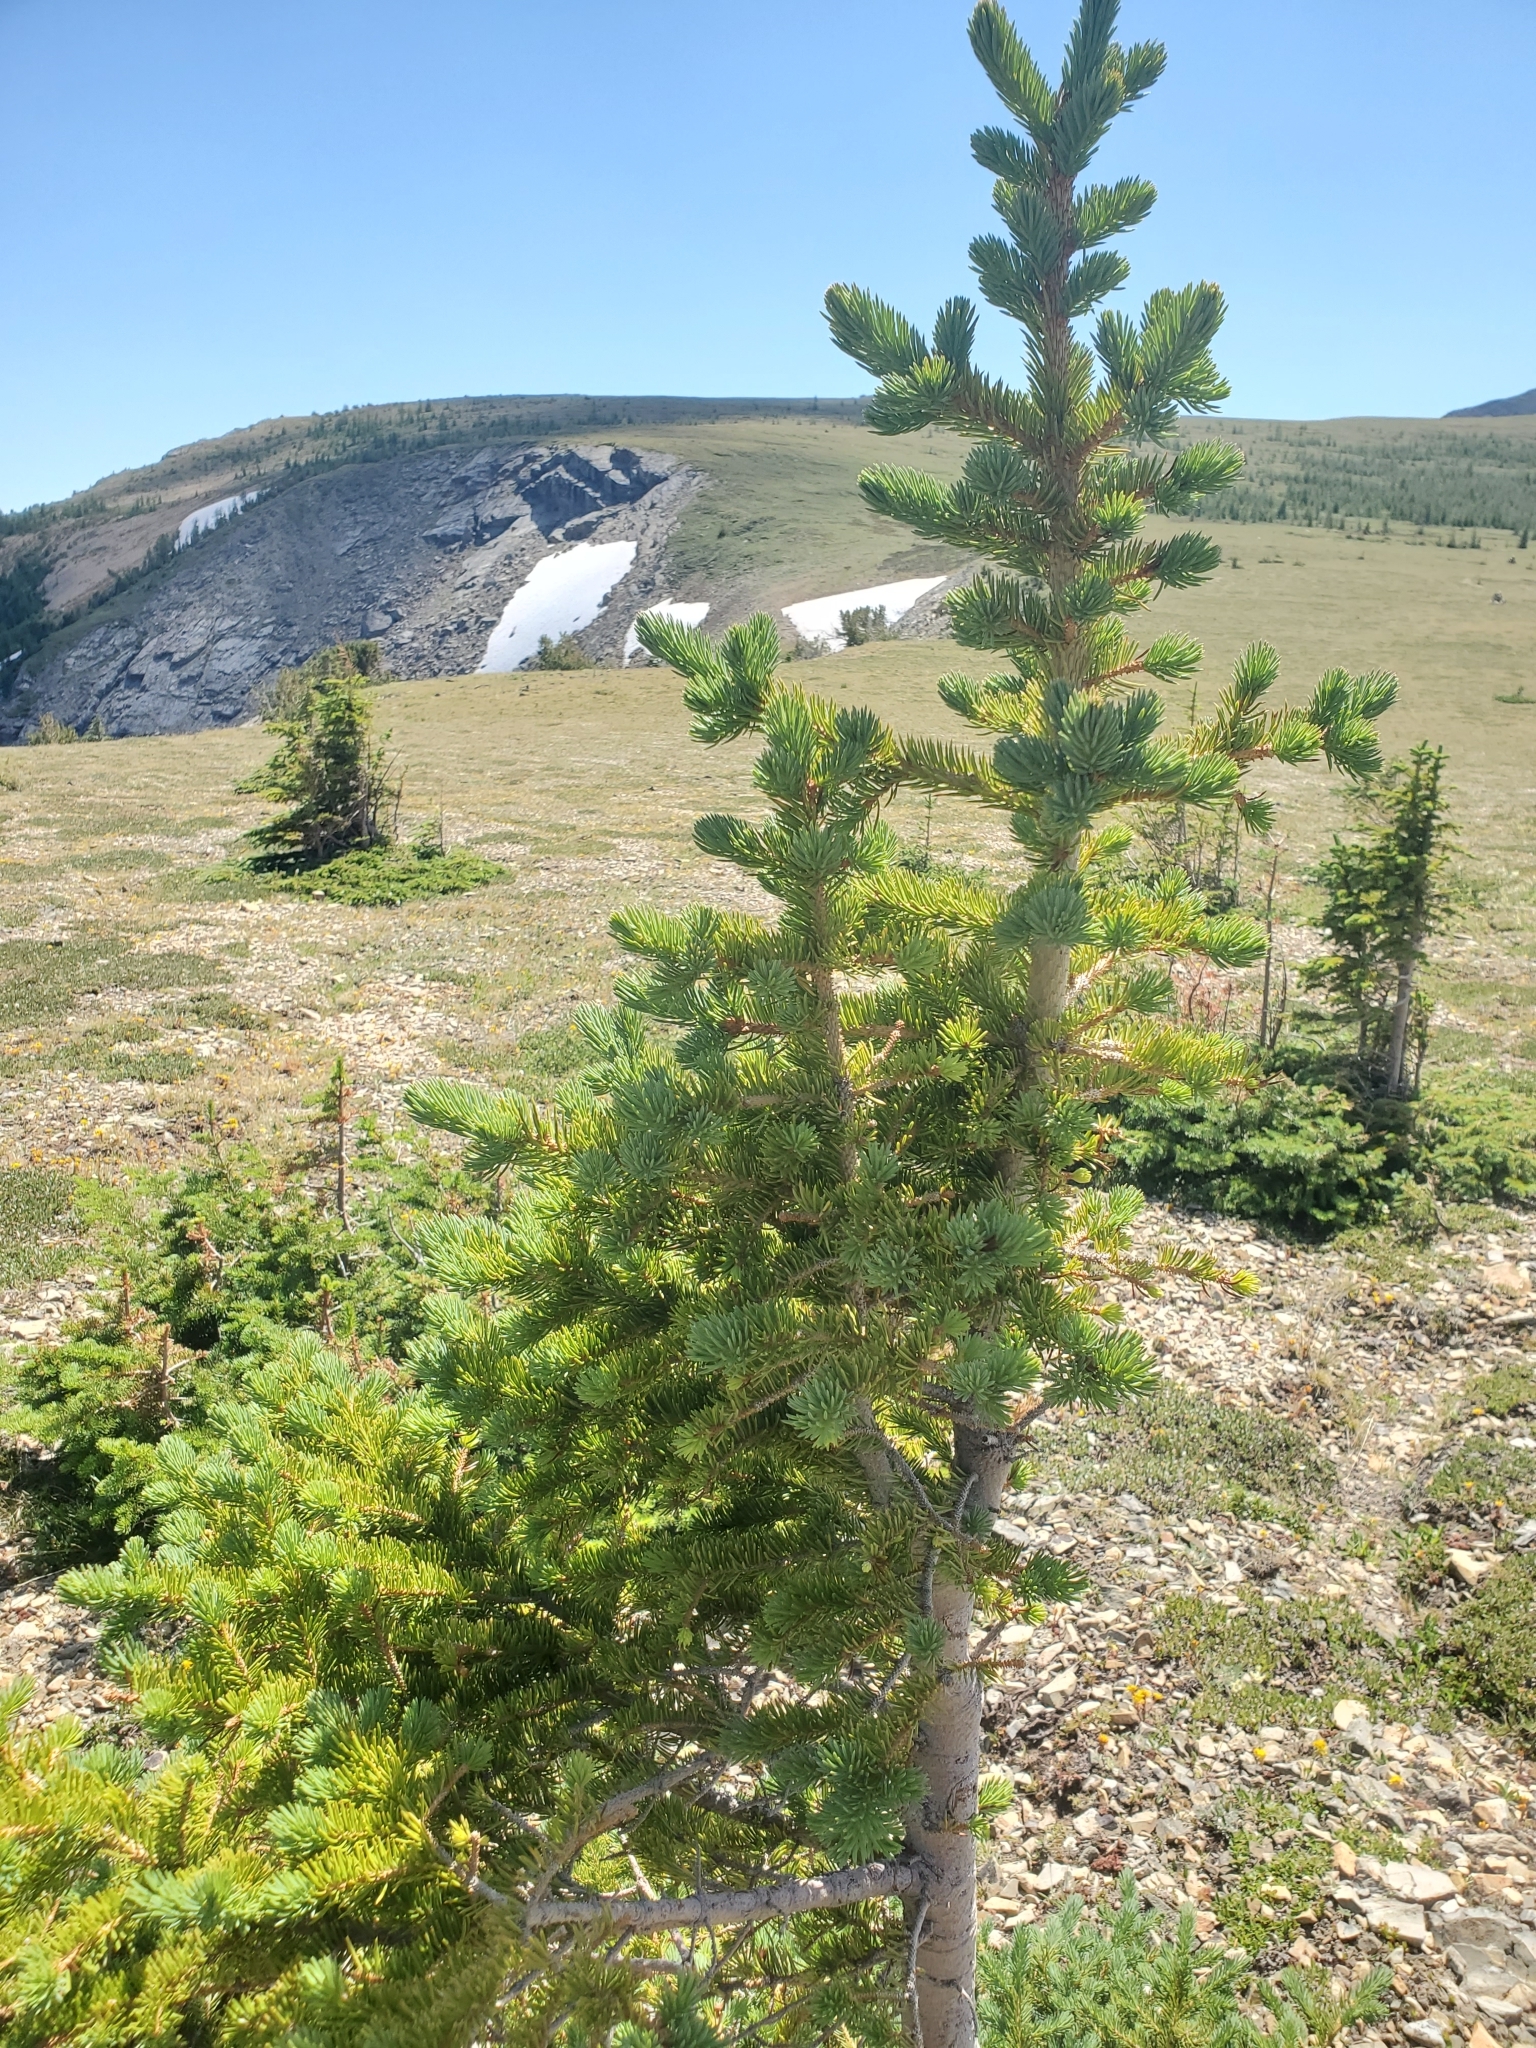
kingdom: Plantae
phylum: Tracheophyta
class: Pinopsida
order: Pinales
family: Pinaceae
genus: Abies
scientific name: Abies lasiocarpa
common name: Subalpine fir
